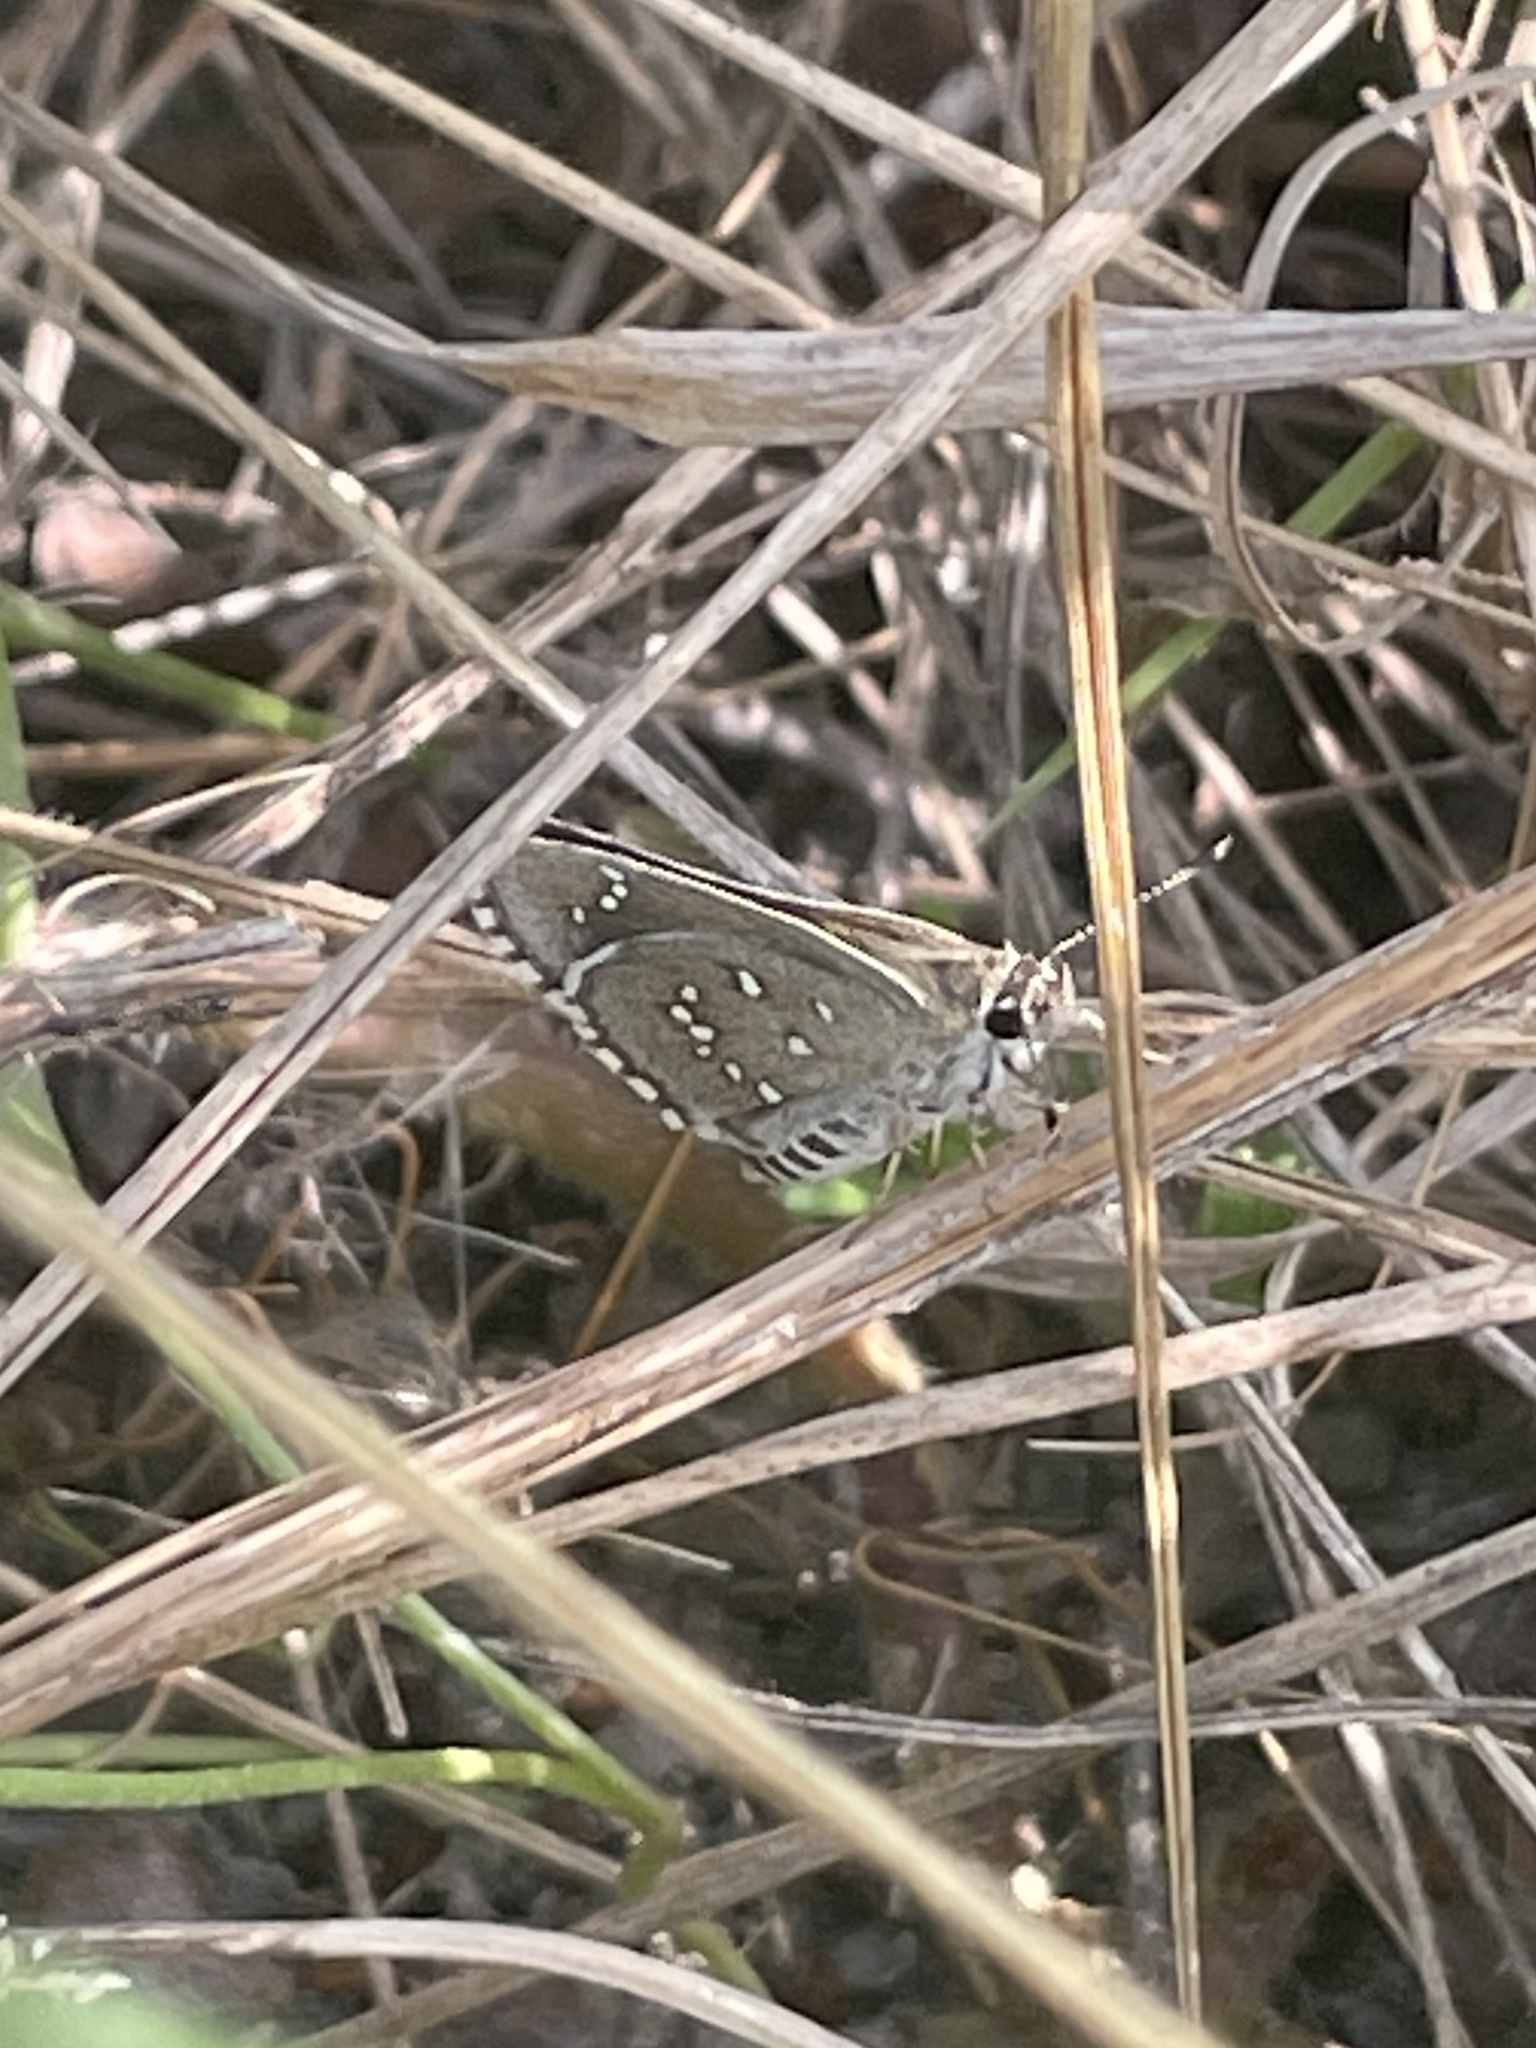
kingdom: Animalia
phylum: Arthropoda
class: Insecta
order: Lepidoptera
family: Hesperiidae
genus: Mastor
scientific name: Mastor eos
